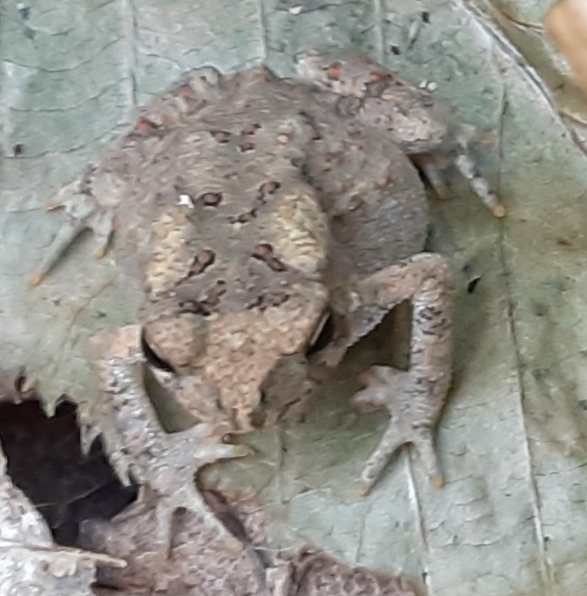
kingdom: Animalia
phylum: Chordata
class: Amphibia
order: Anura
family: Bufonidae
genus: Anaxyrus
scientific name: Anaxyrus americanus
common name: American toad
